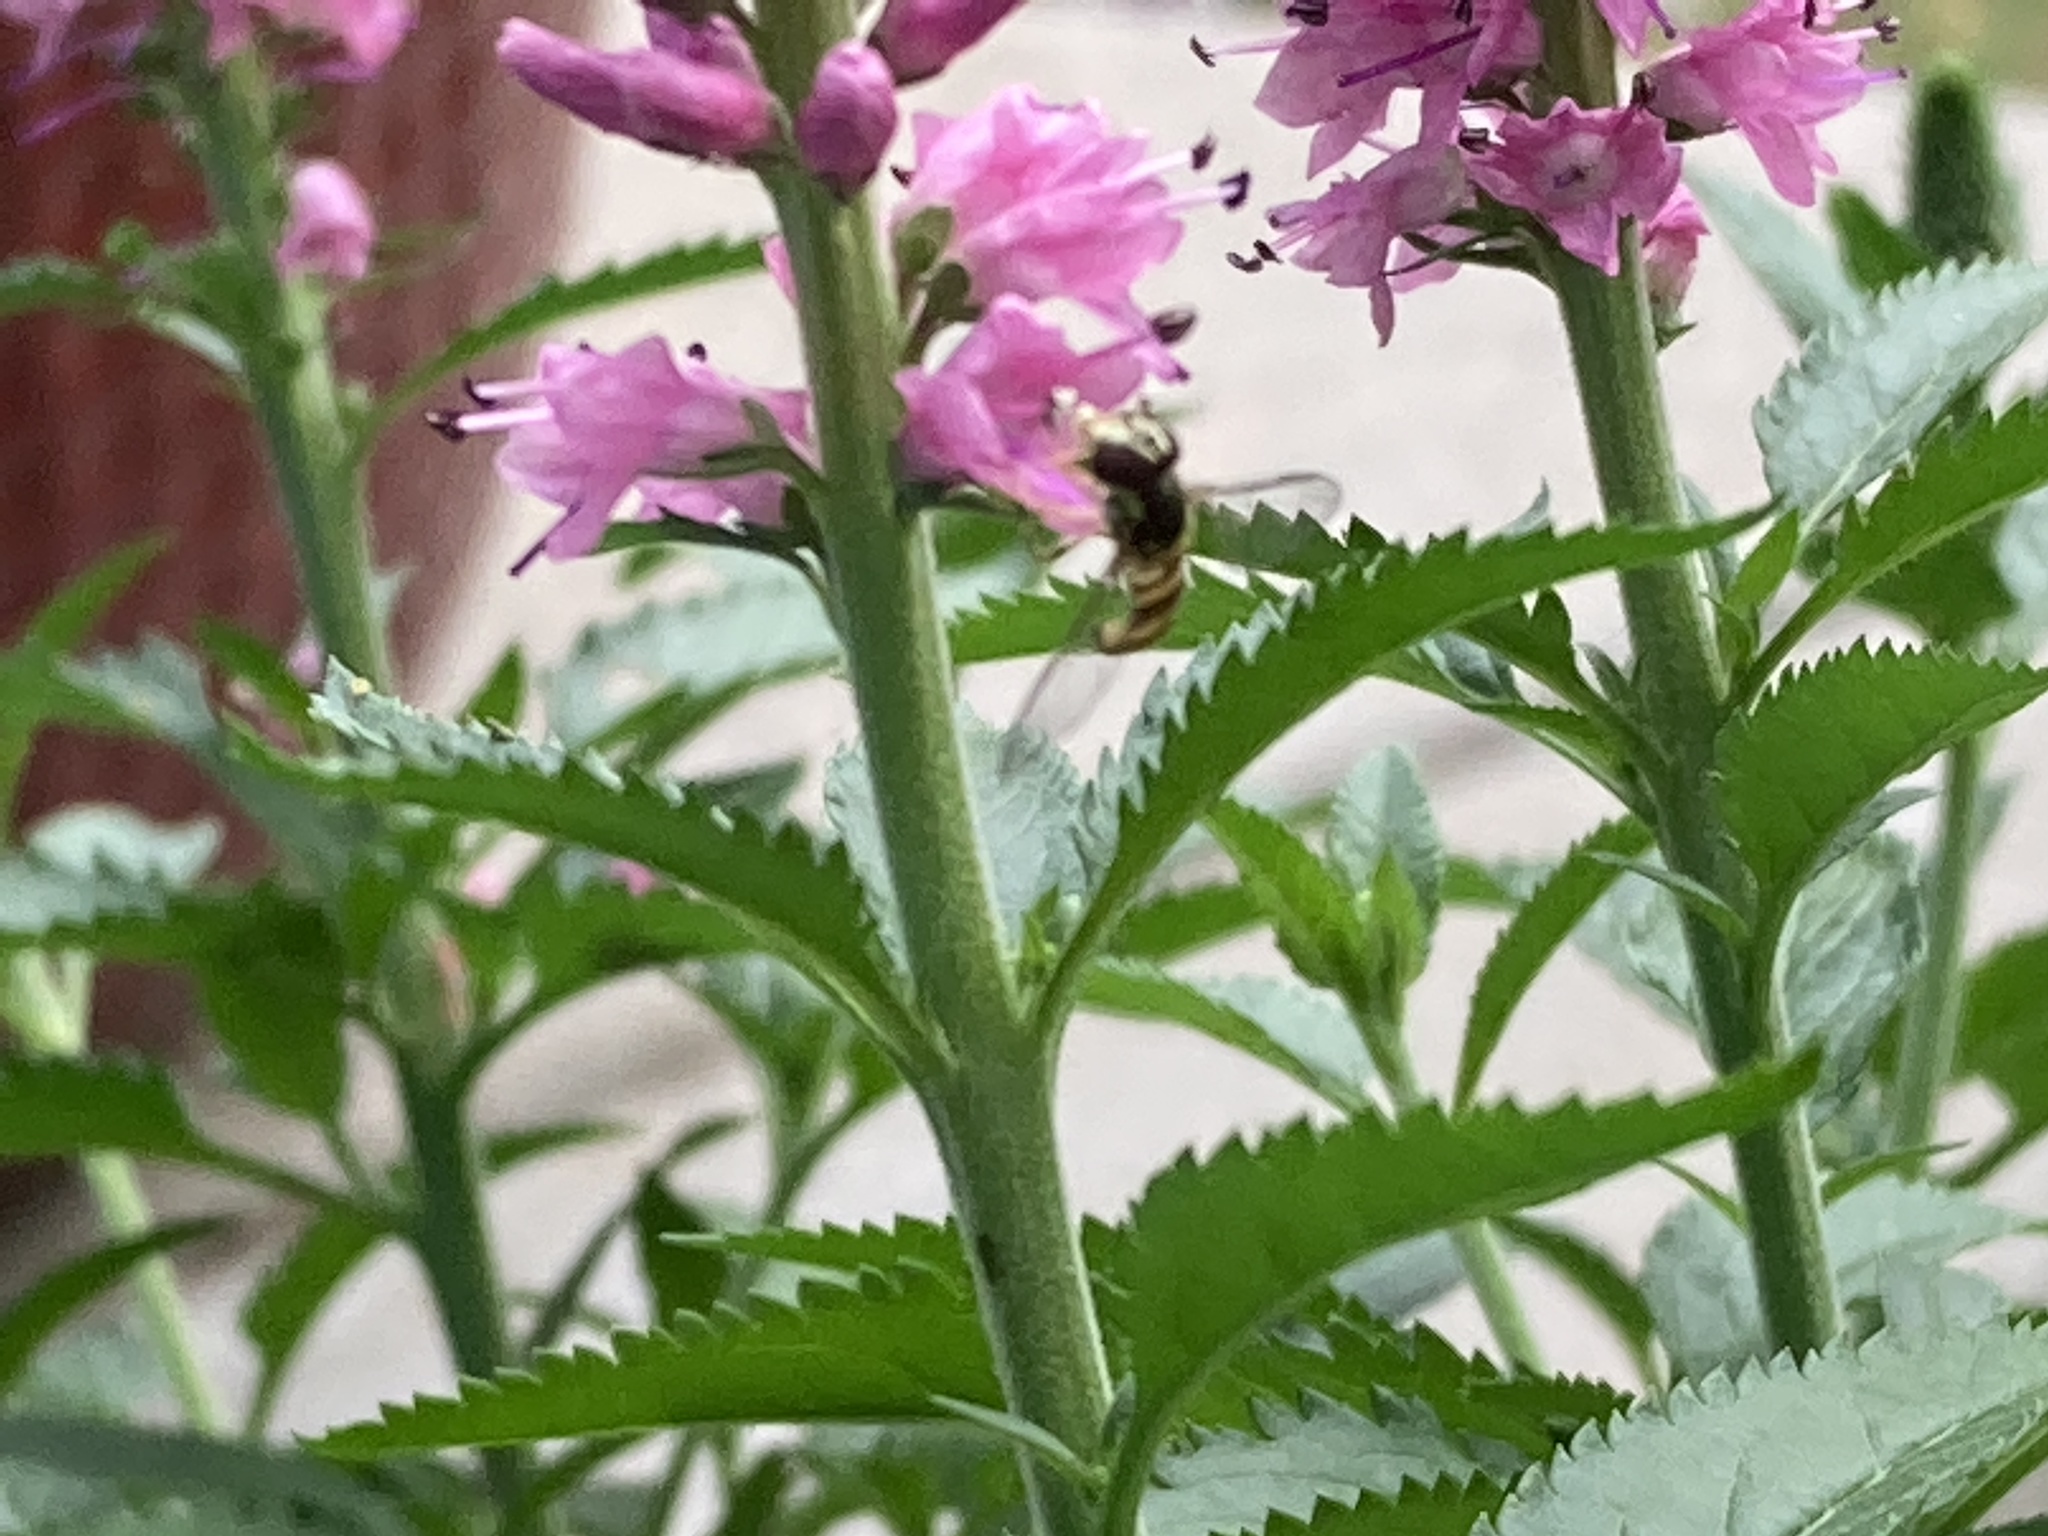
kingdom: Animalia
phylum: Arthropoda
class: Insecta
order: Diptera
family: Syrphidae
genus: Allograpta
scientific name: Allograpta obliqua
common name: Common oblique syrphid
